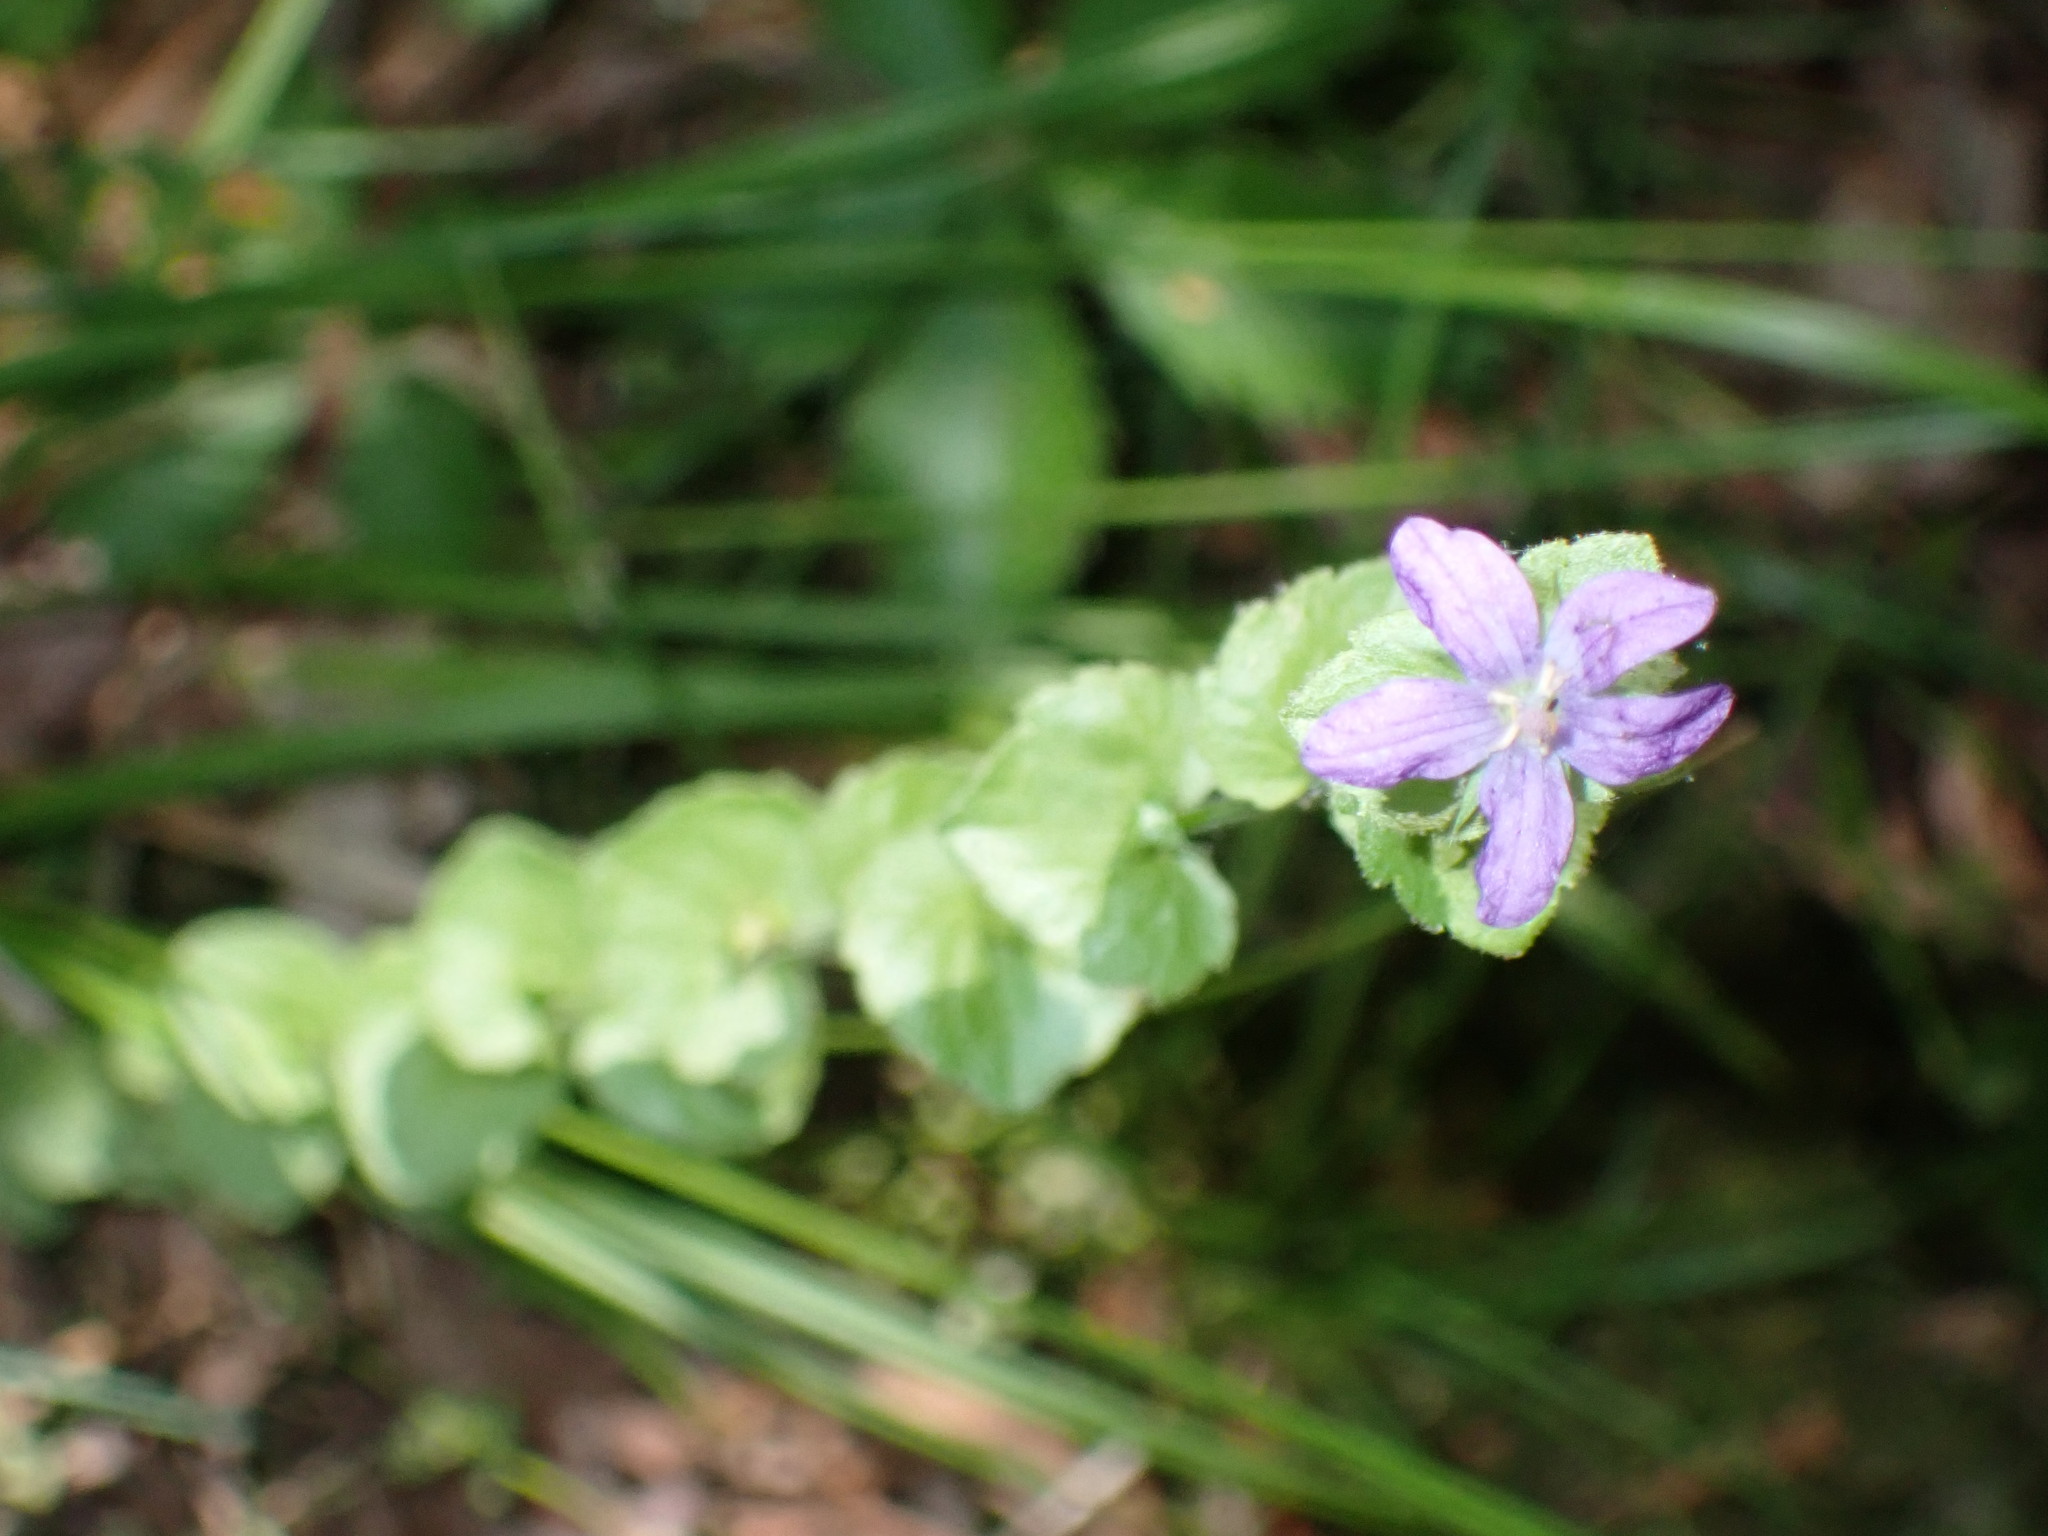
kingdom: Plantae
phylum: Tracheophyta
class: Magnoliopsida
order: Asterales
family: Campanulaceae
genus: Triodanis
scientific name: Triodanis perfoliata
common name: Clasping venus' looking-glass
